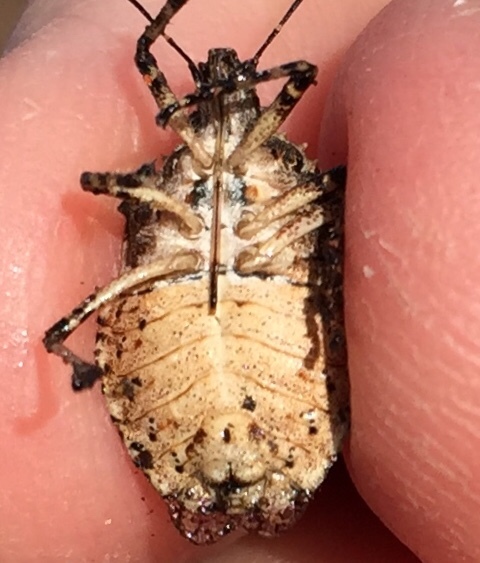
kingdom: Animalia
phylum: Arthropoda
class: Insecta
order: Hemiptera
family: Pentatomidae
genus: Brochymena
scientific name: Brochymena arborea
